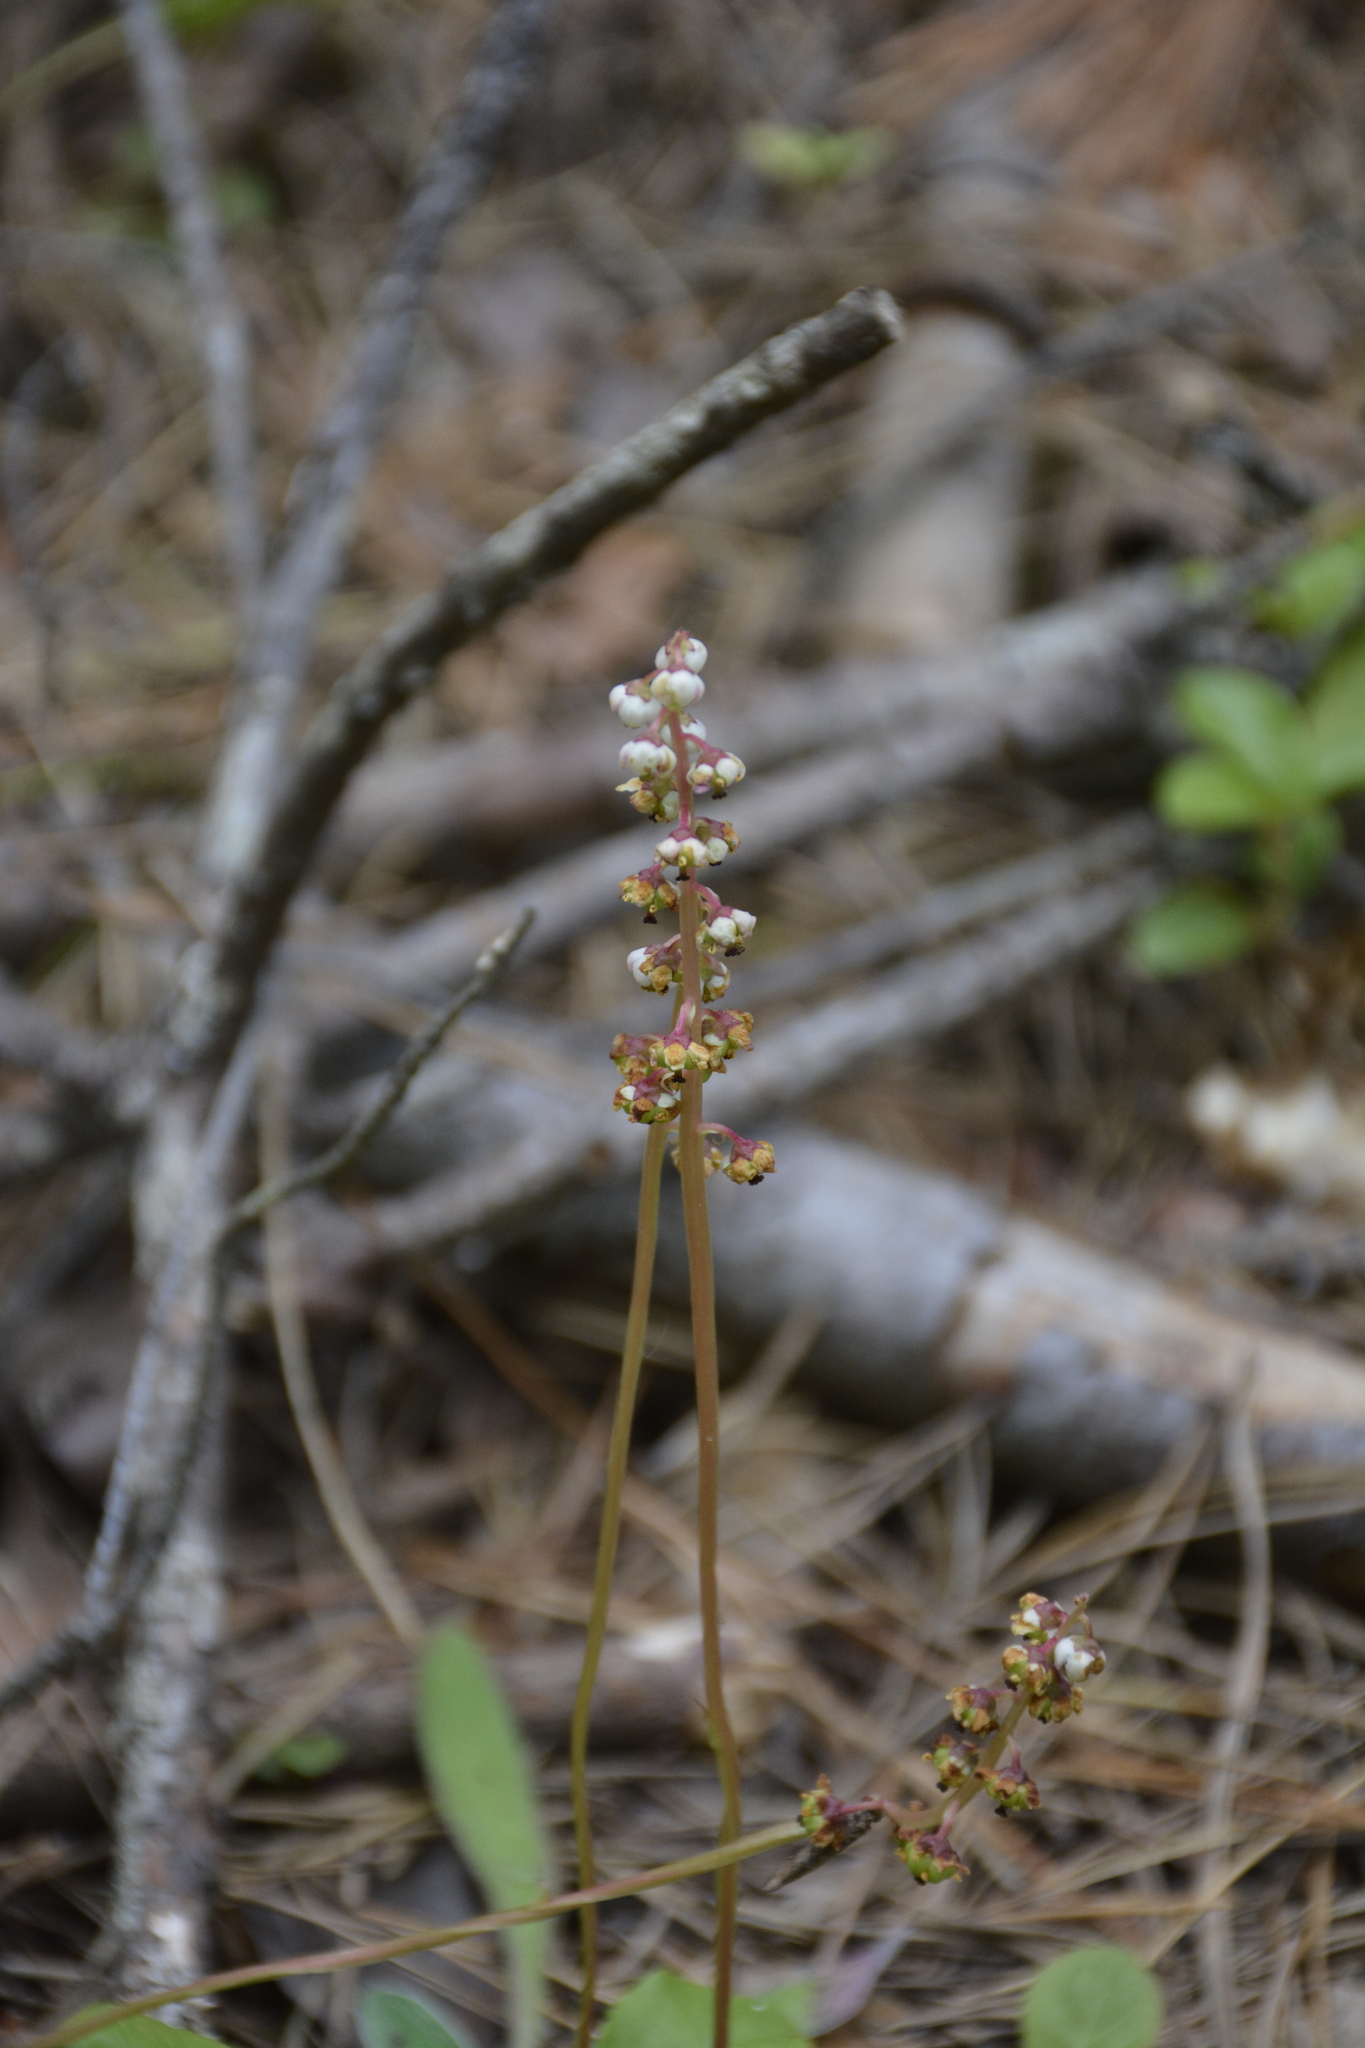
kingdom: Plantae
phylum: Tracheophyta
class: Magnoliopsida
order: Ericales
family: Ericaceae
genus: Pyrola
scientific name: Pyrola minor
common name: Common wintergreen
